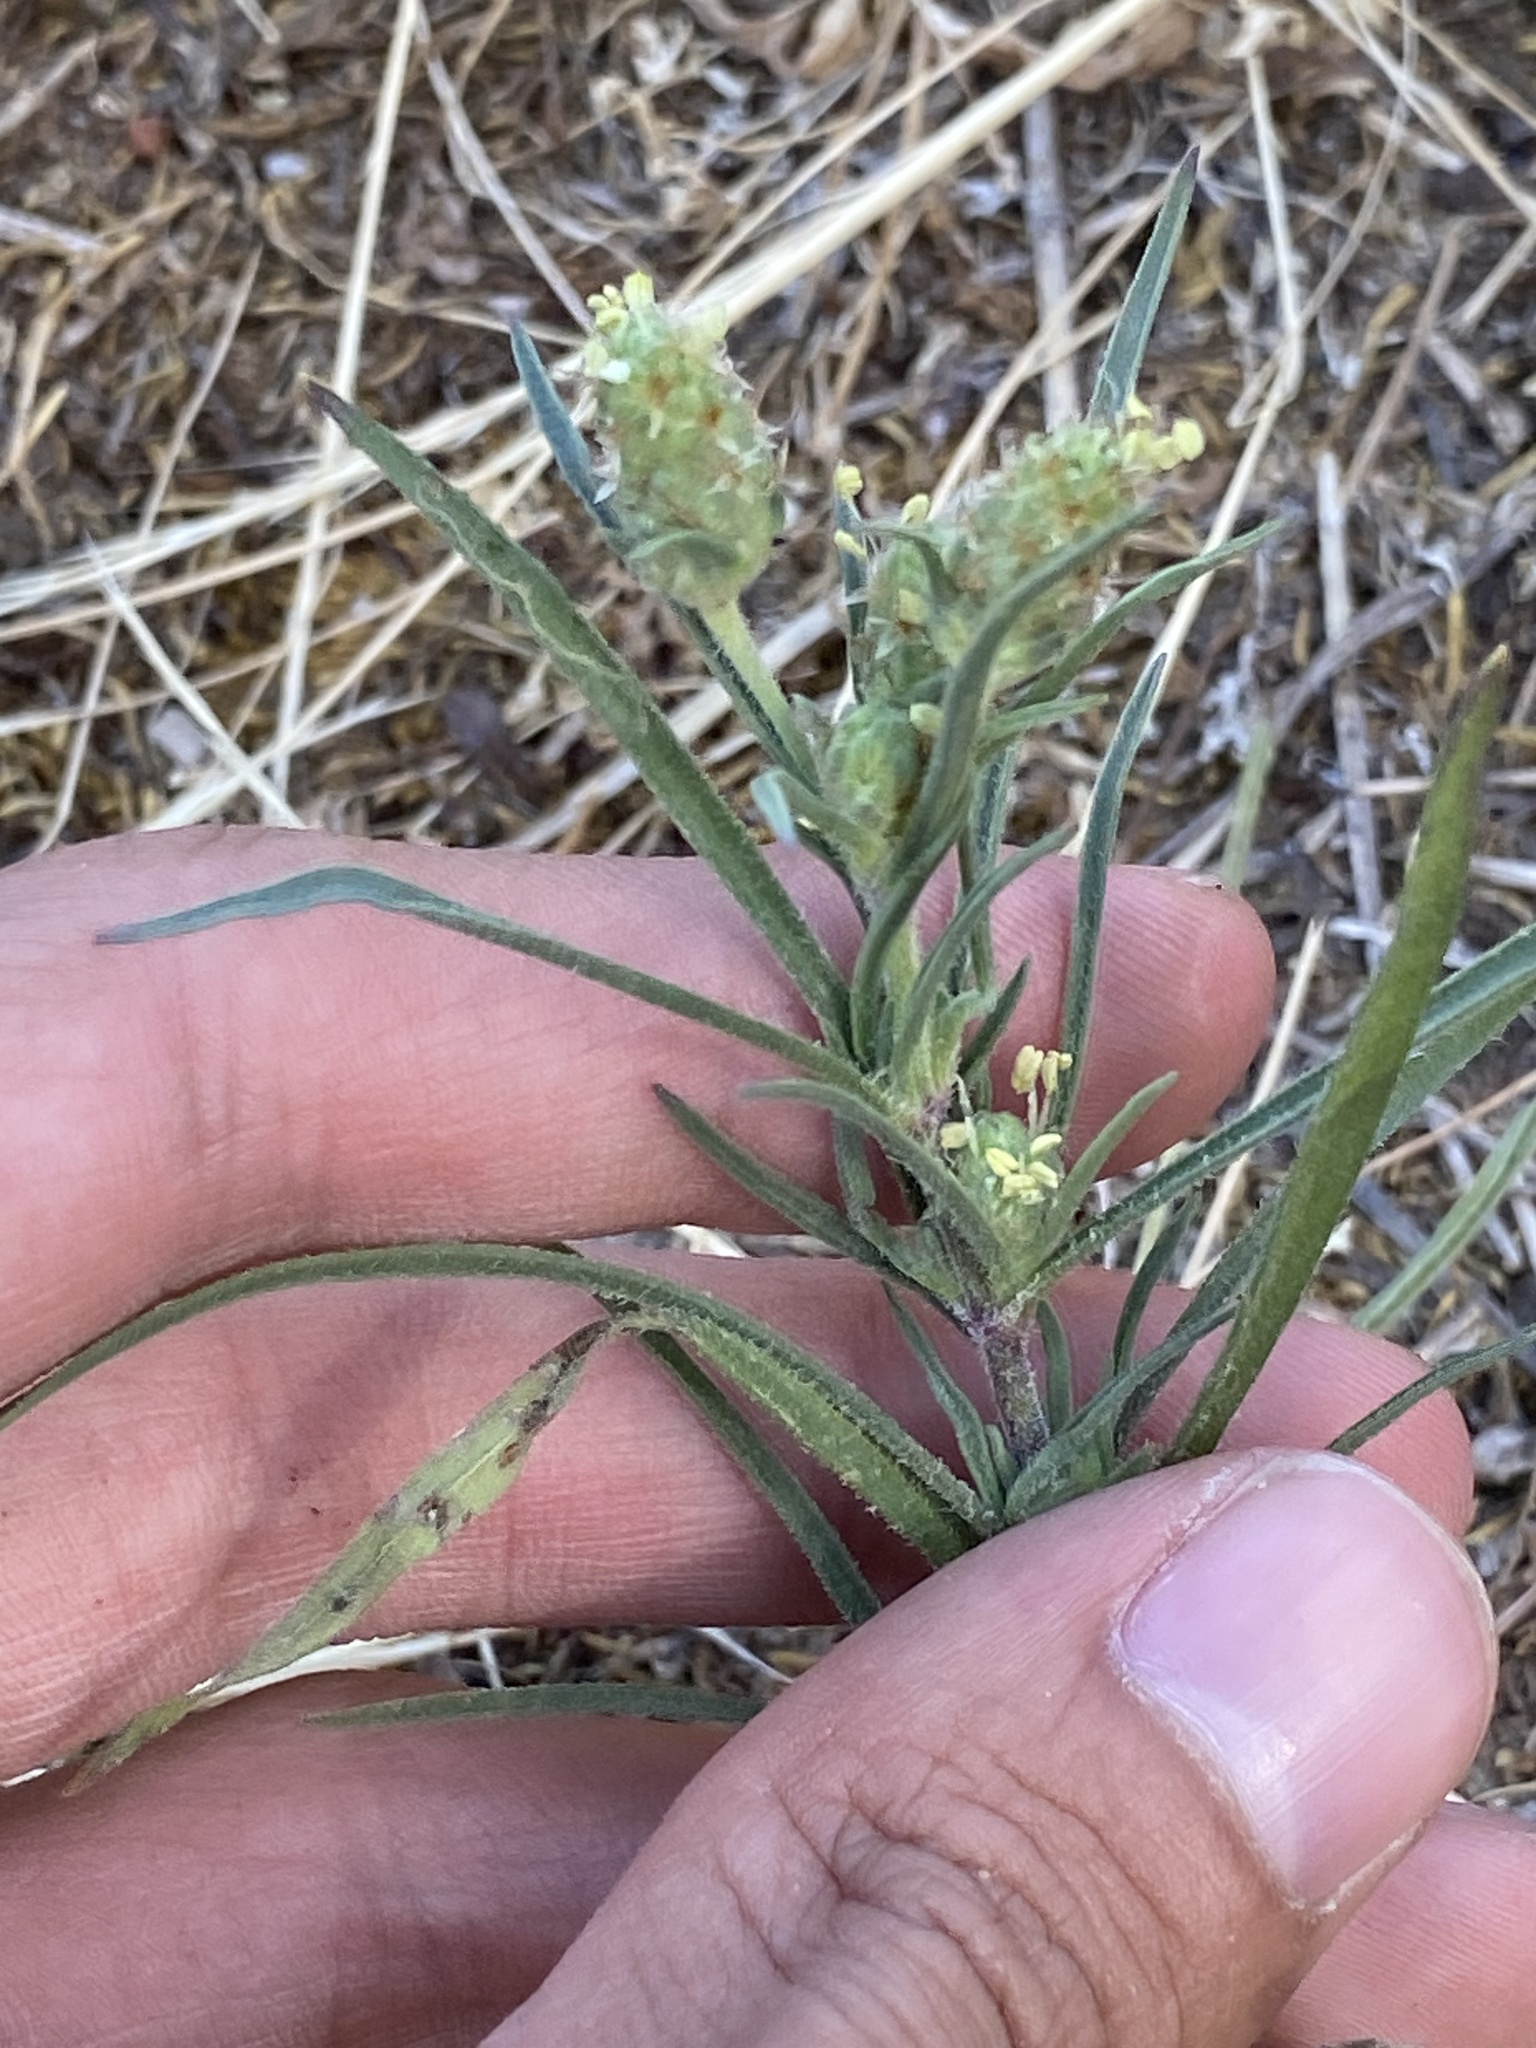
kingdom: Plantae
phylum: Tracheophyta
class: Magnoliopsida
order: Lamiales
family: Plantaginaceae
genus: Plantago
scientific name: Plantago arenaria
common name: Branched plantain
